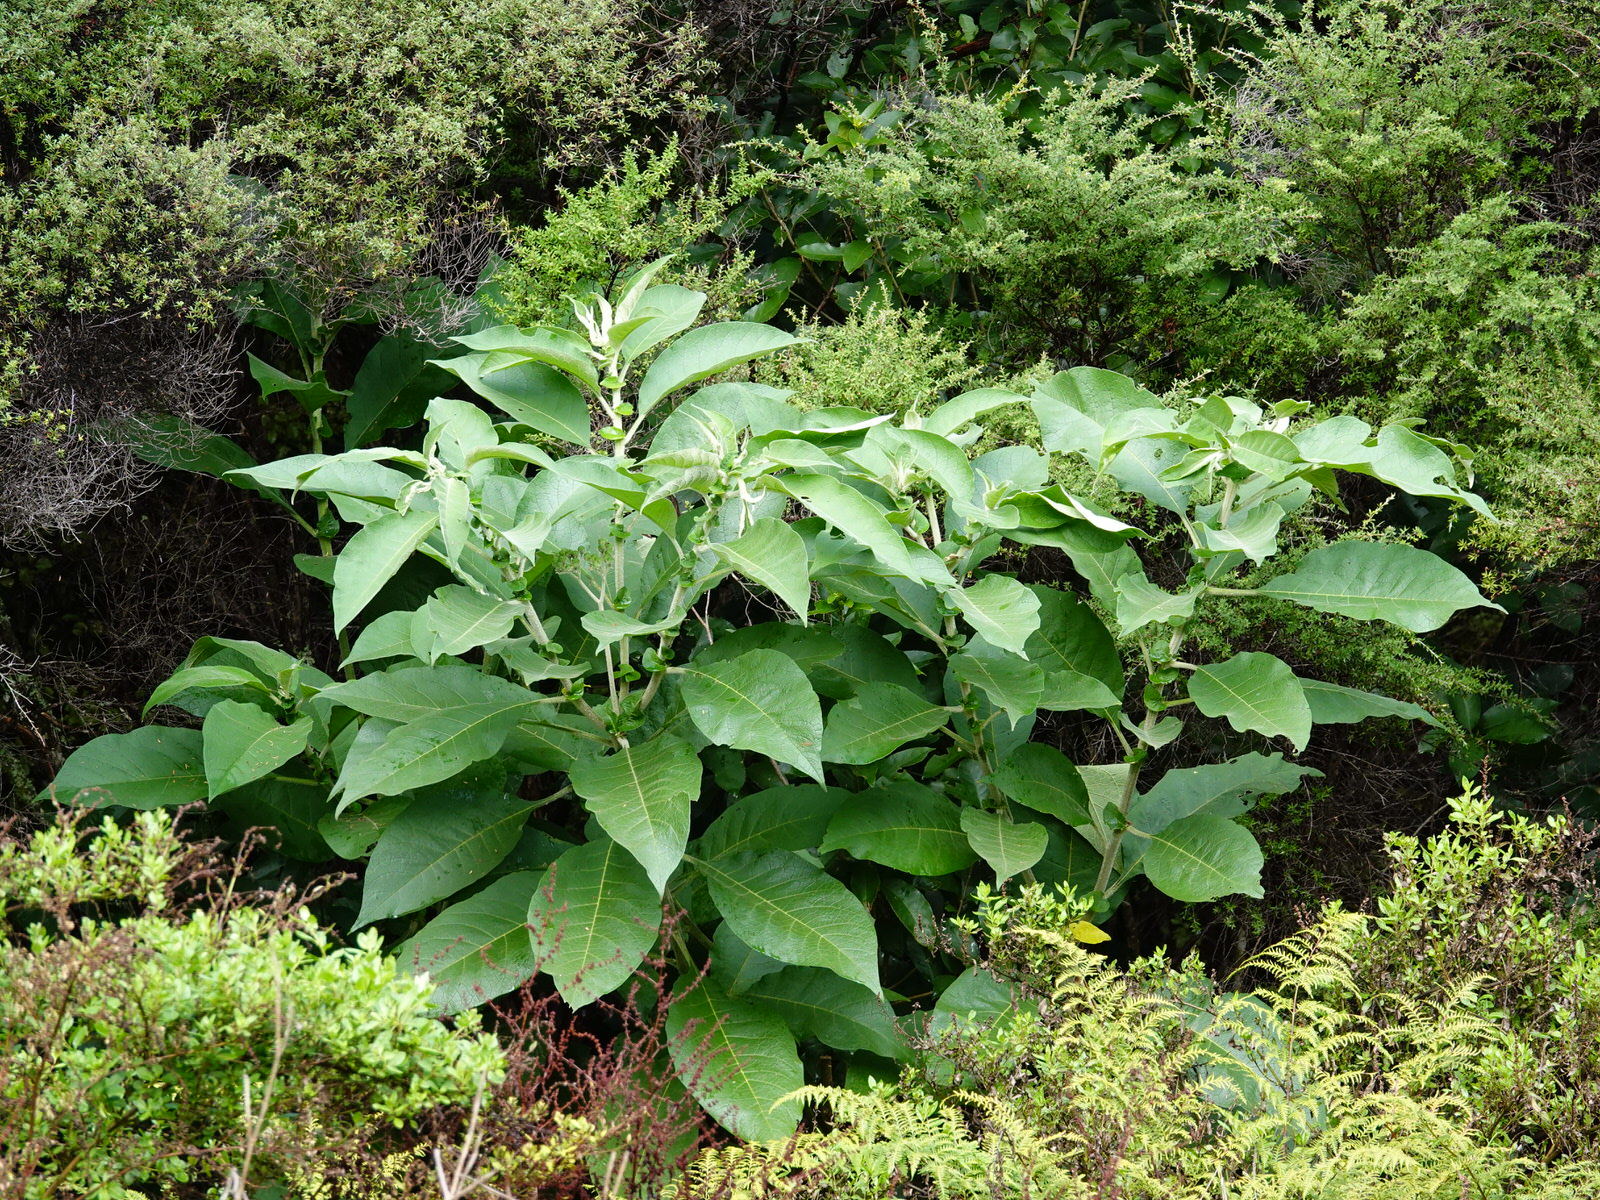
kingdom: Plantae
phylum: Tracheophyta
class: Magnoliopsida
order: Solanales
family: Solanaceae
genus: Solanum
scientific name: Solanum mauritianum
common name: Earleaf nightshade
